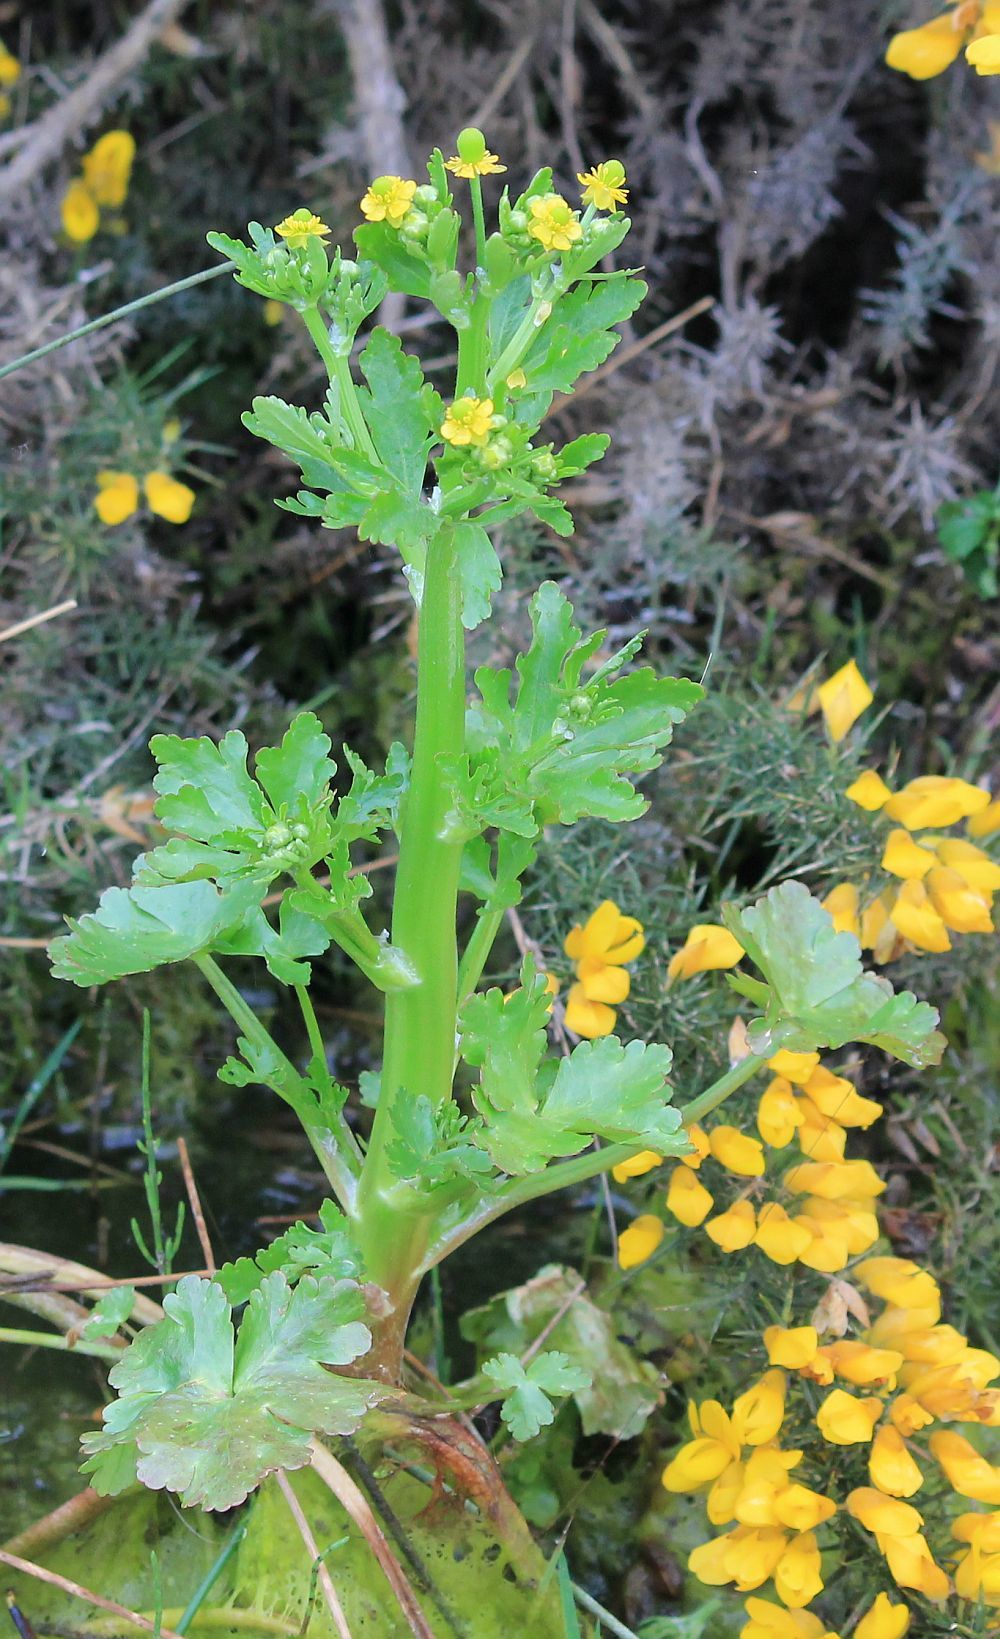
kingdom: Plantae
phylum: Tracheophyta
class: Magnoliopsida
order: Ranunculales
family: Ranunculaceae
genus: Ranunculus
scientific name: Ranunculus sceleratus
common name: Celery-leaved buttercup
